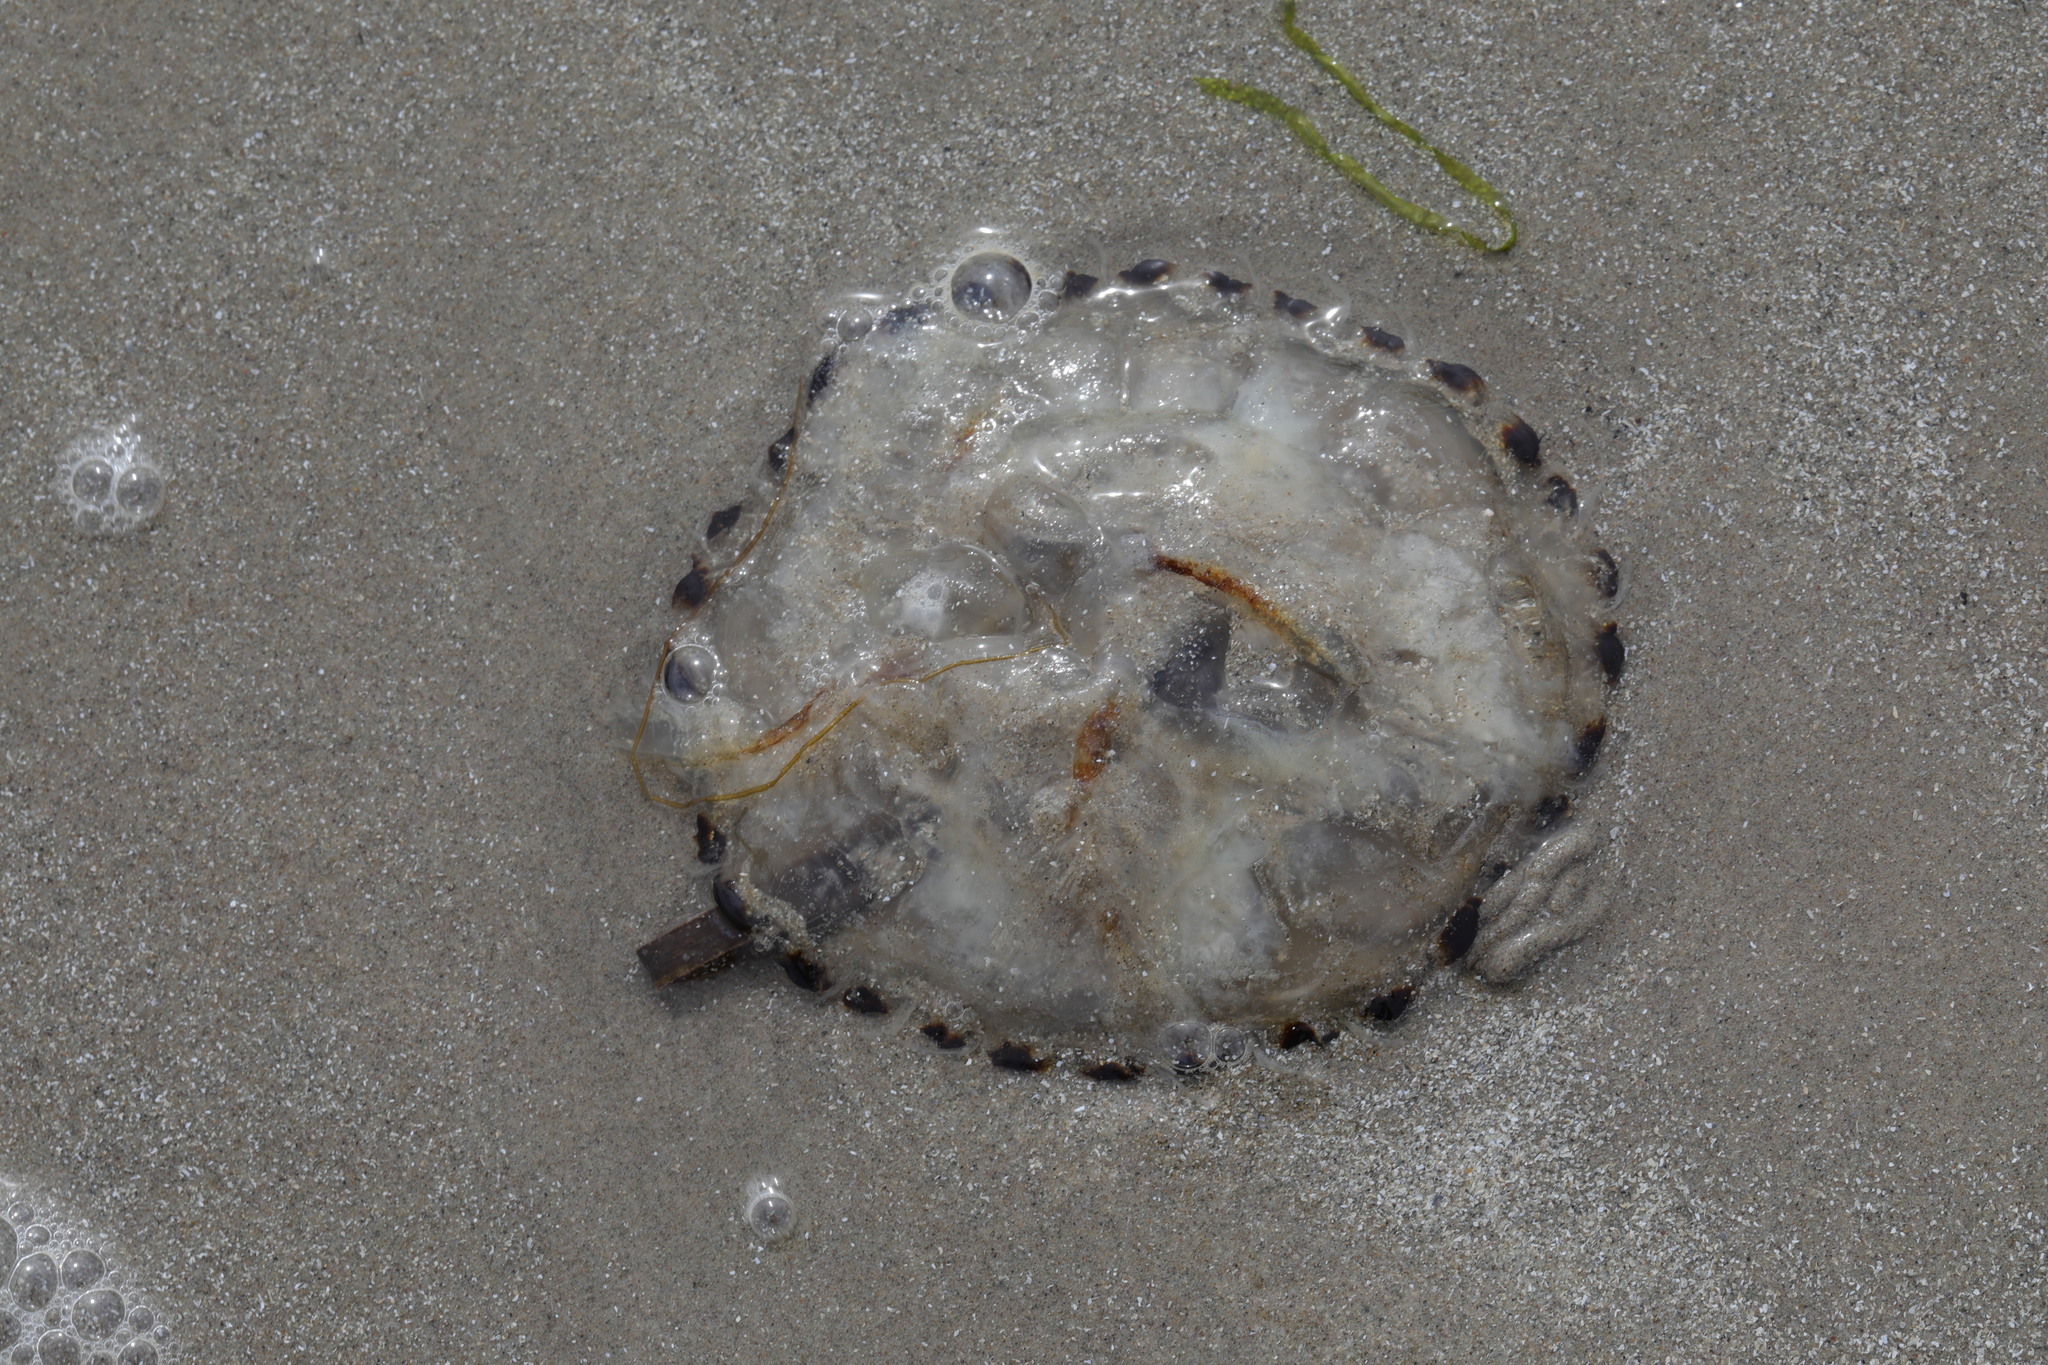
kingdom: Animalia
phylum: Cnidaria
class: Scyphozoa
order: Semaeostomeae
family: Pelagiidae
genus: Chrysaora
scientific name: Chrysaora hysoscella
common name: Compass jellyfish
